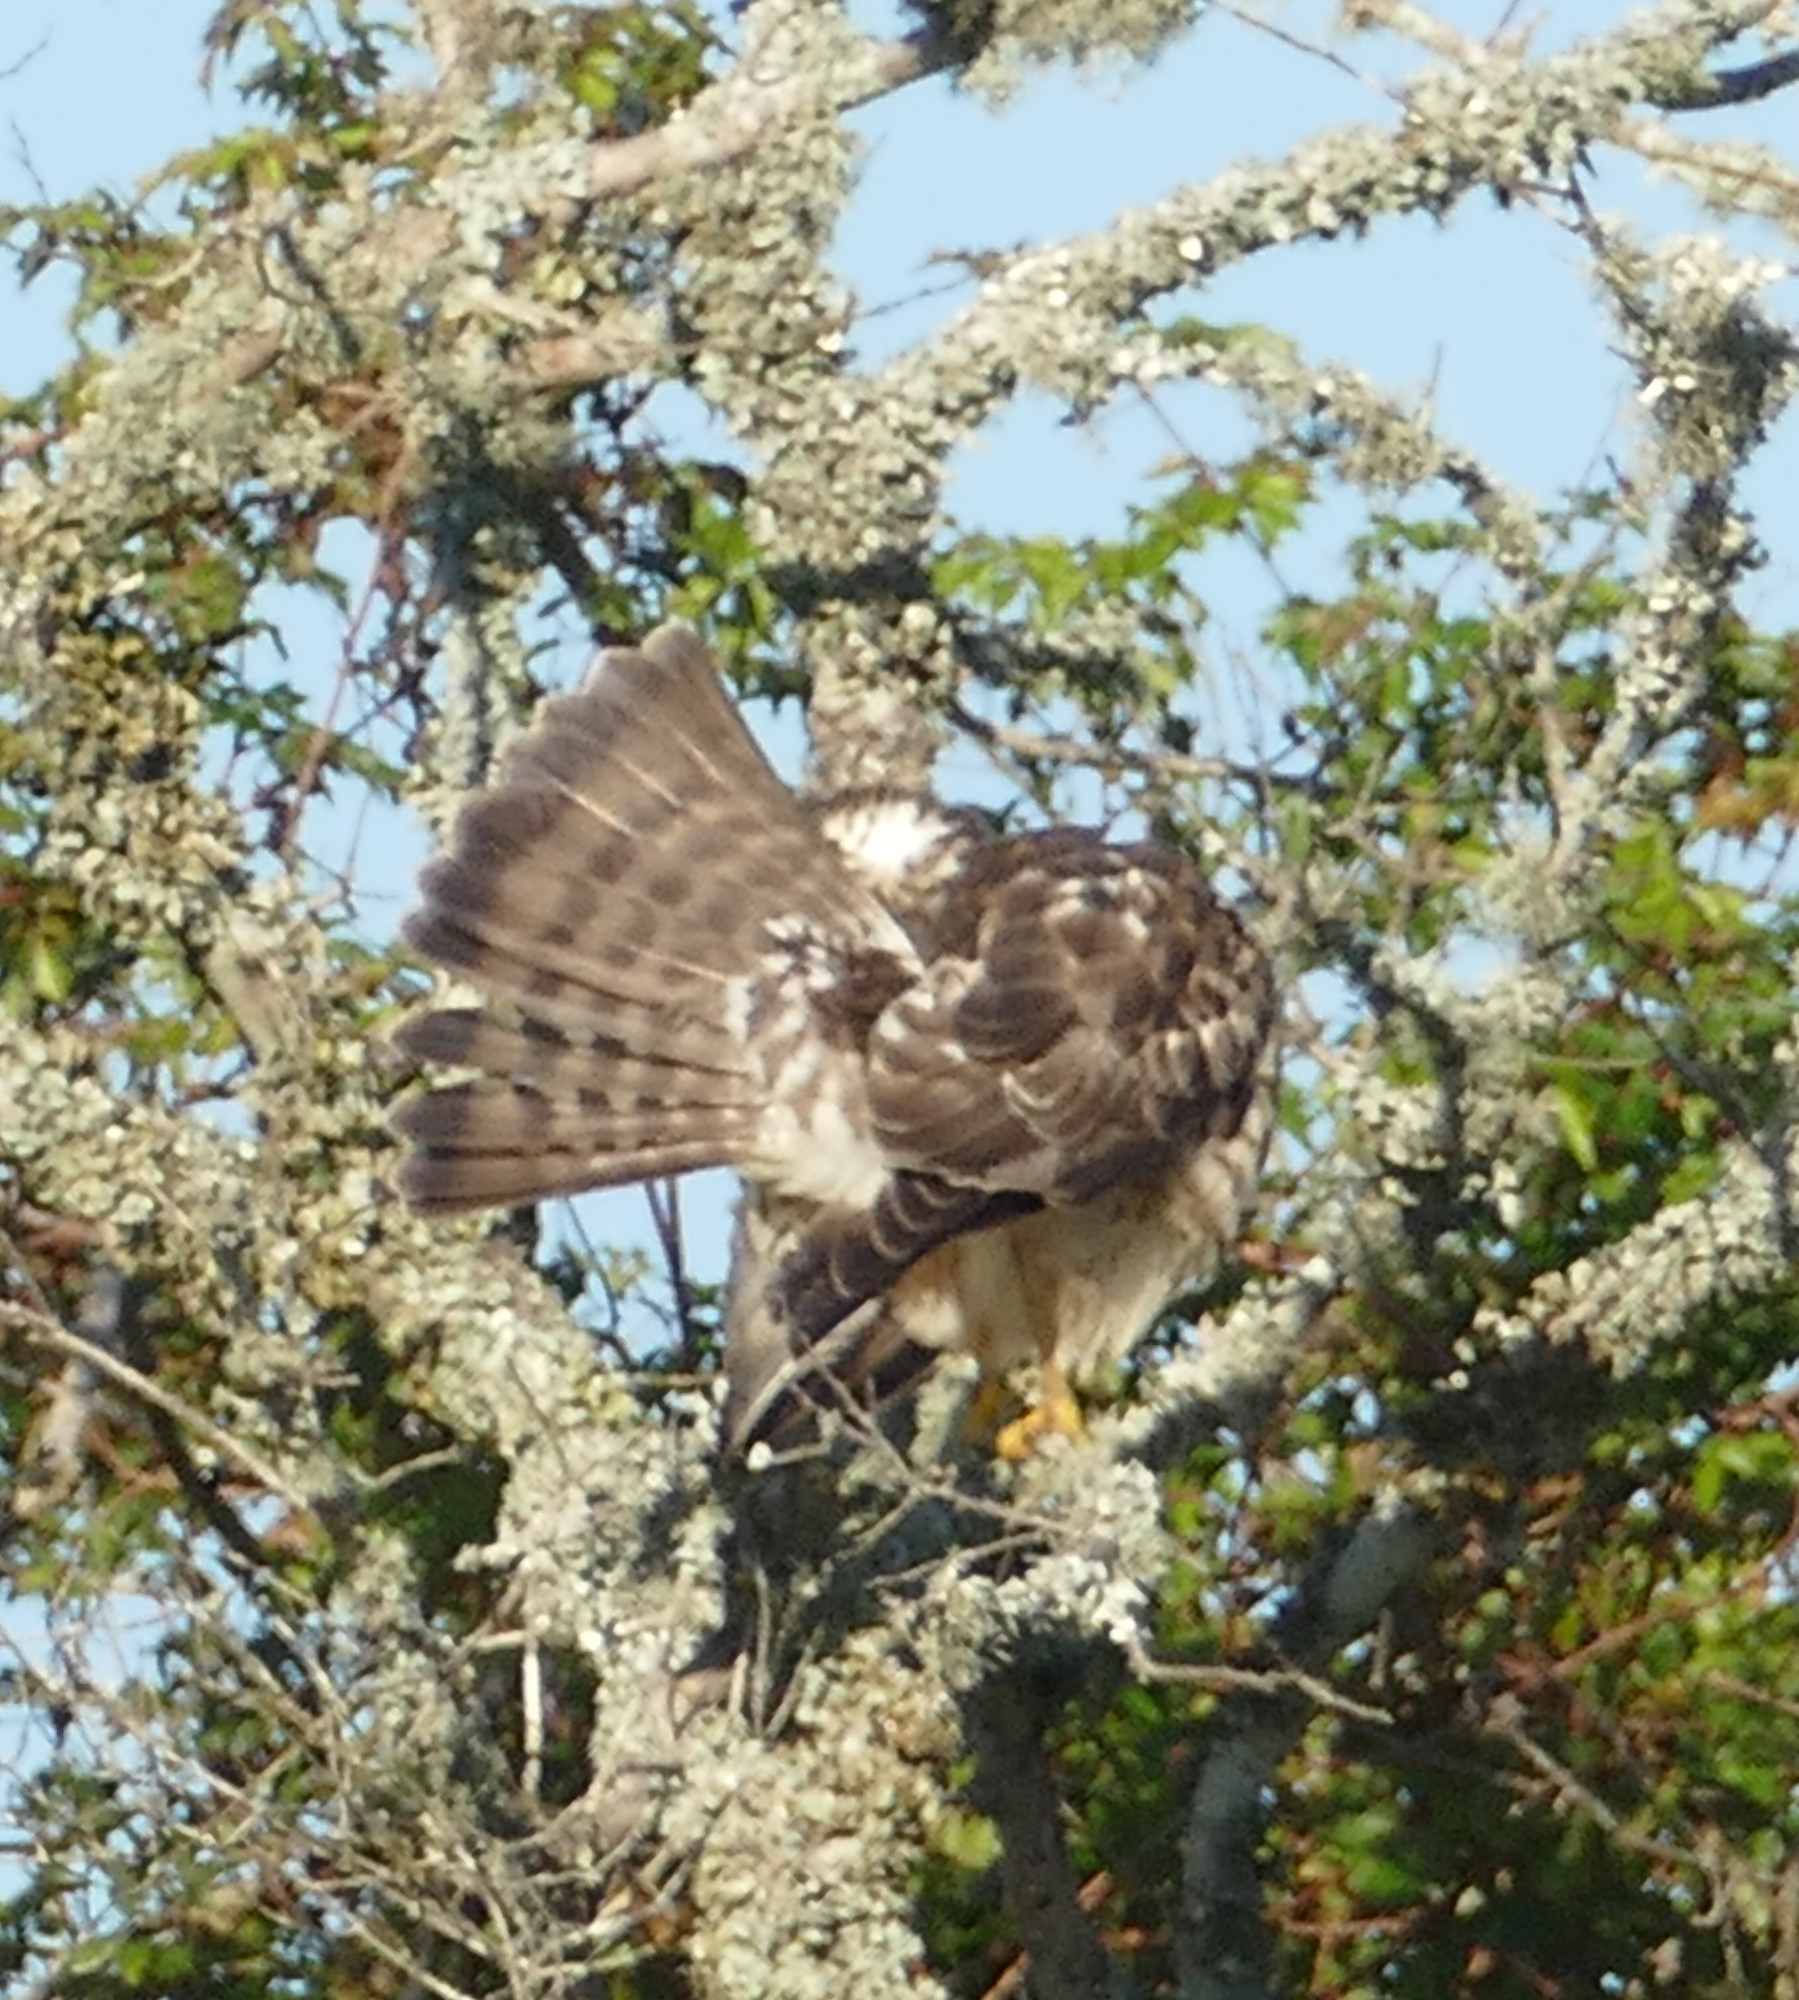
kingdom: Animalia
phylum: Chordata
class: Aves
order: Accipitriformes
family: Accipitridae
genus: Buteo
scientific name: Buteo platypterus
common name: Broad-winged hawk
